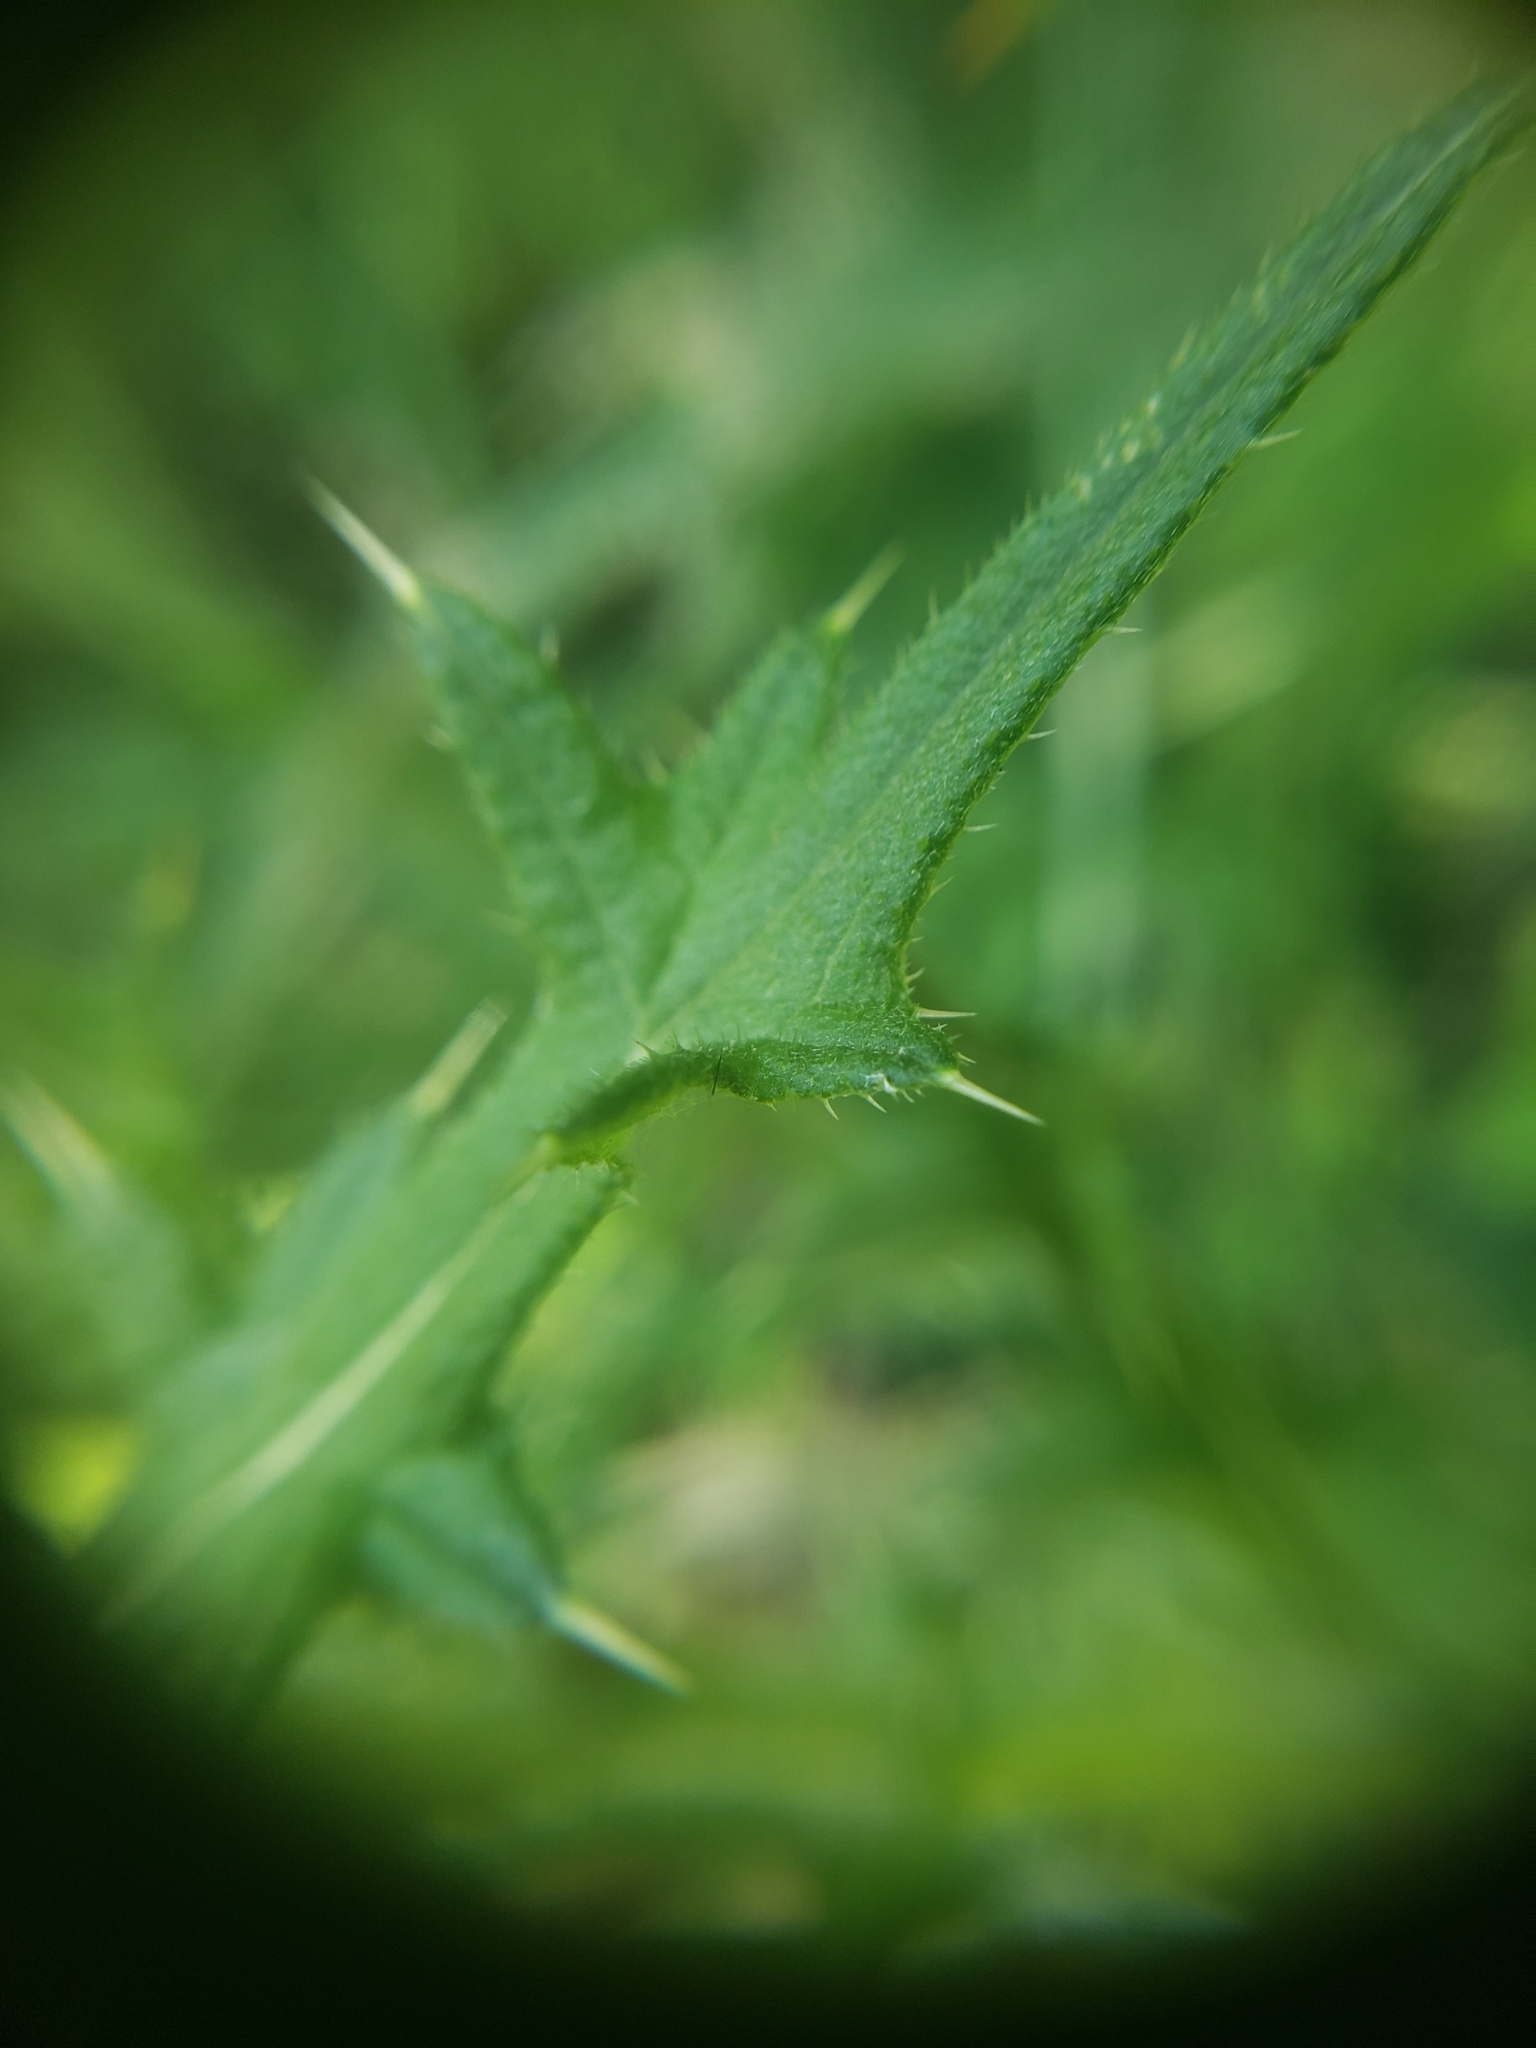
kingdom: Plantae
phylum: Tracheophyta
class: Magnoliopsida
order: Asterales
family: Asteraceae
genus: Cirsium
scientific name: Cirsium vulgare
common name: Bull thistle
